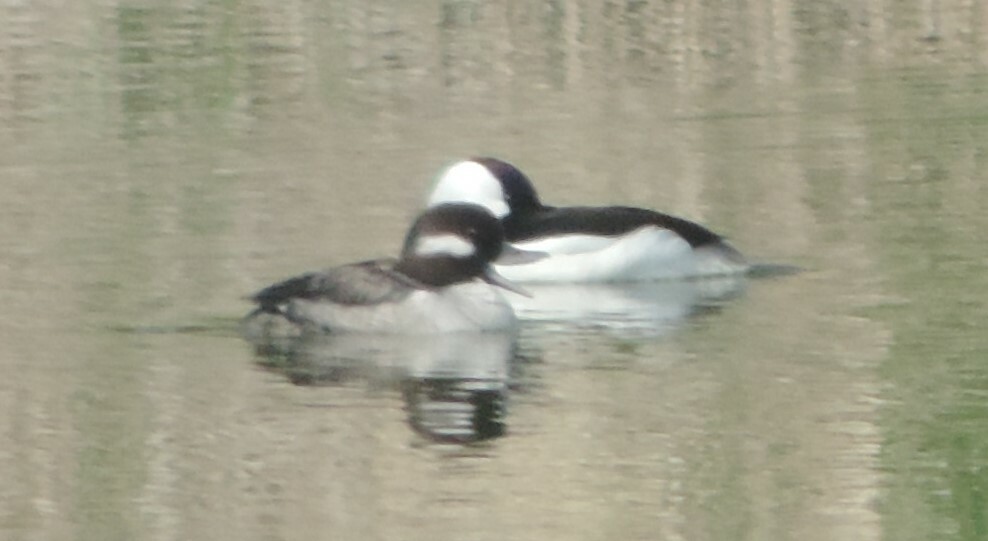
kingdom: Animalia
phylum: Chordata
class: Aves
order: Anseriformes
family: Anatidae
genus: Bucephala
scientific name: Bucephala albeola
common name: Bufflehead
